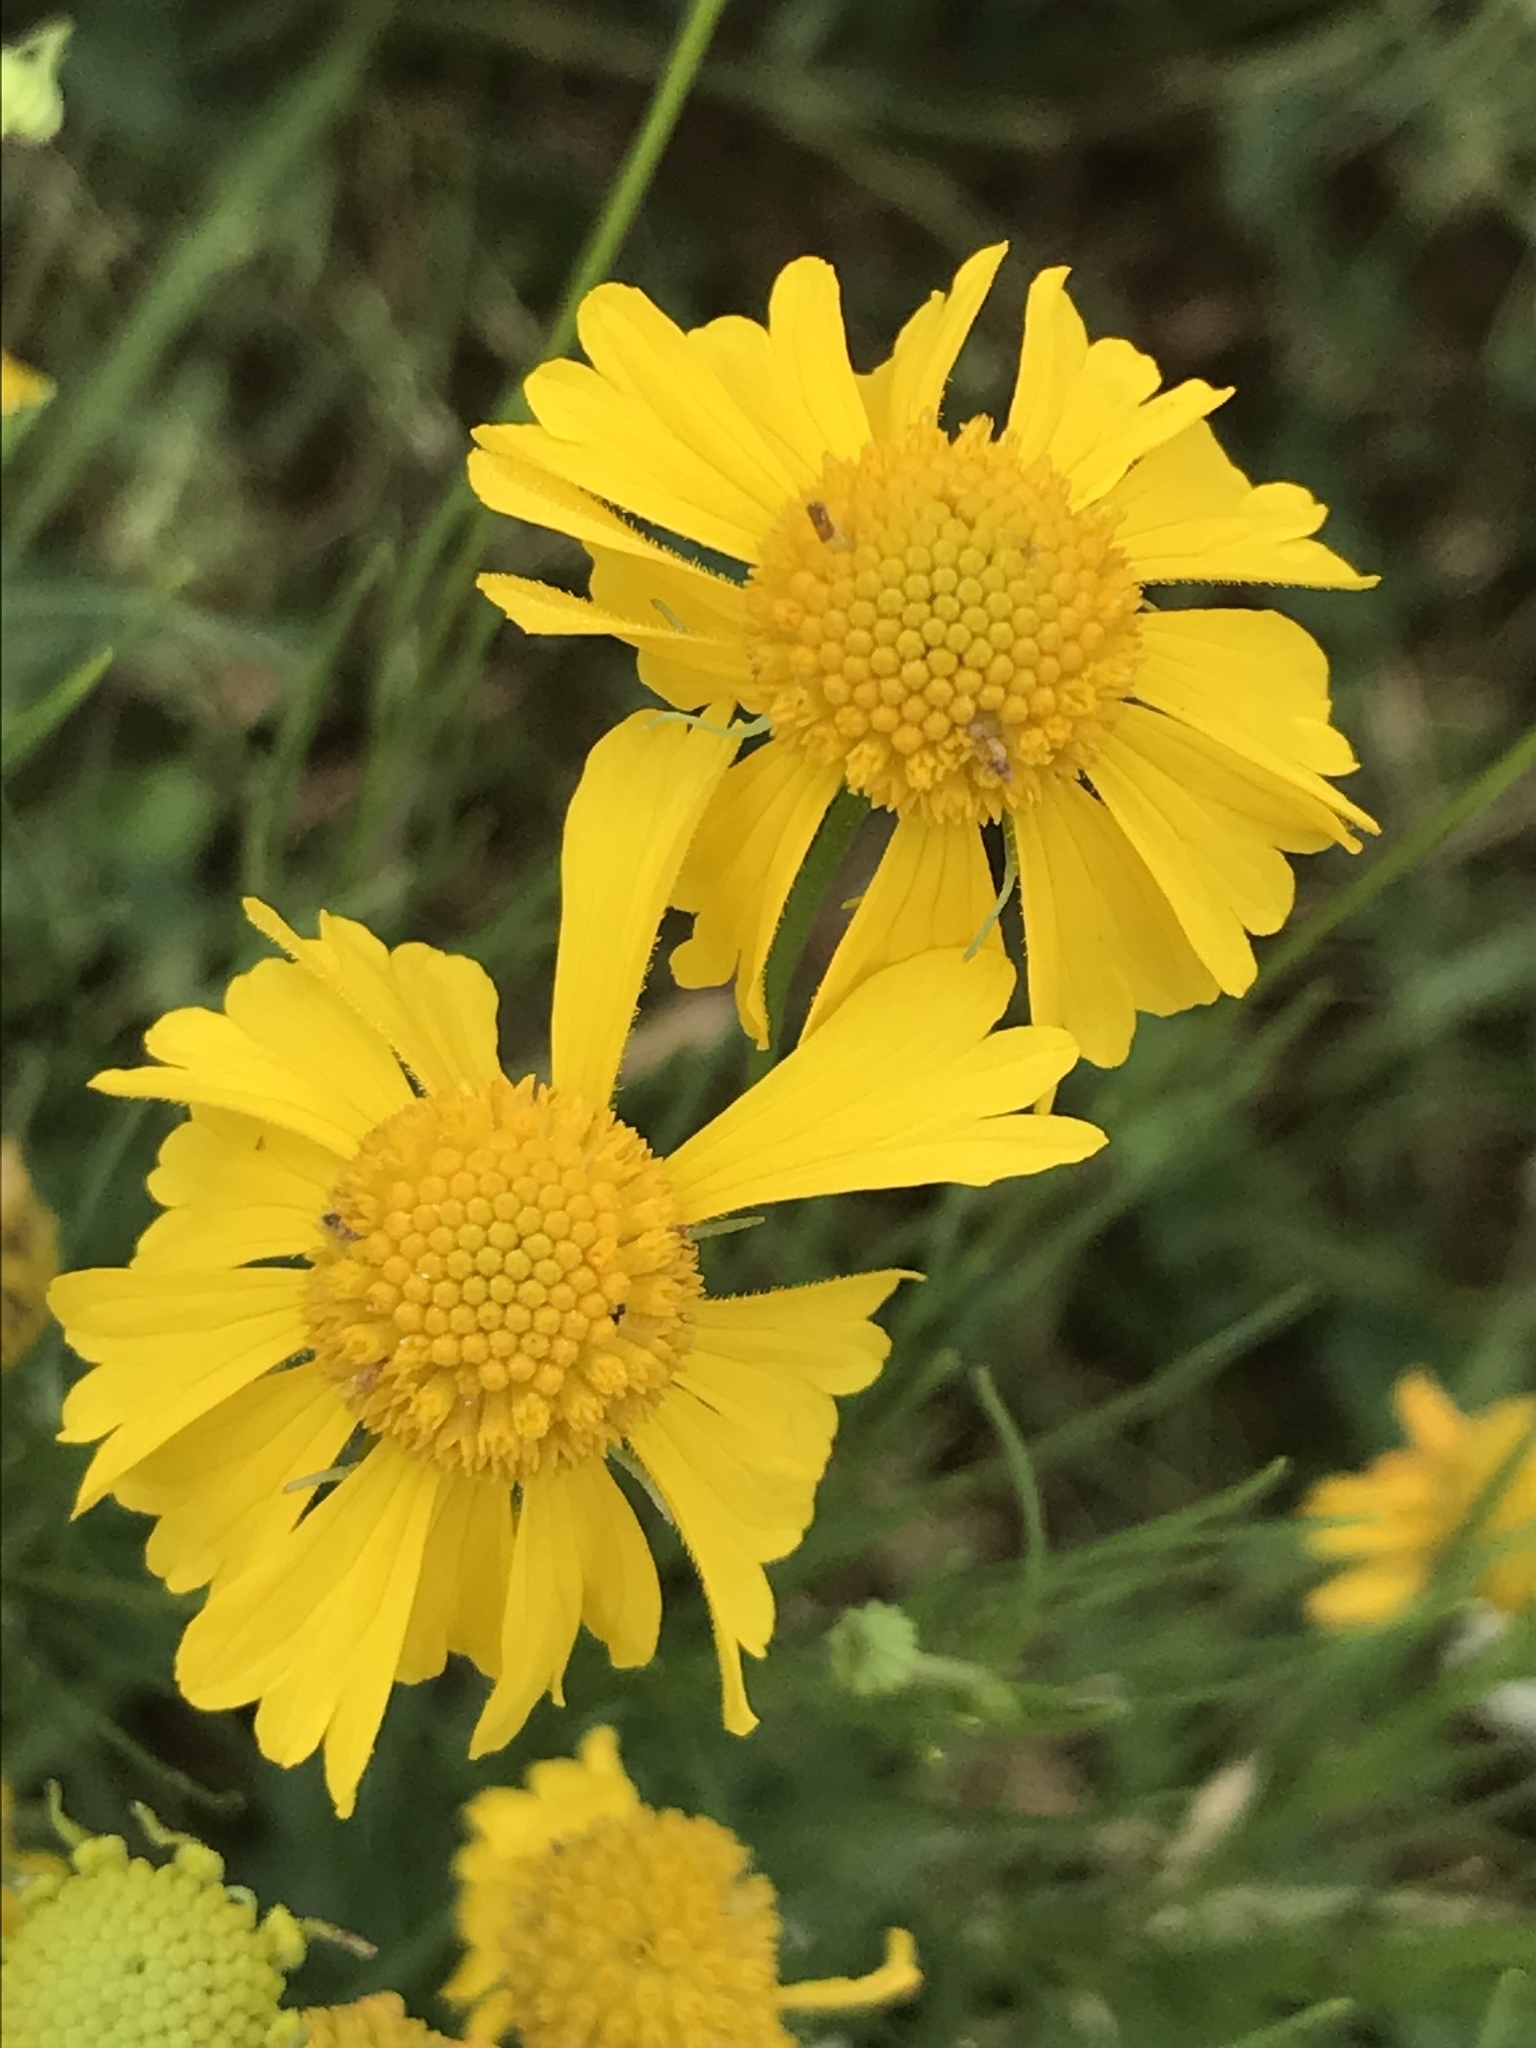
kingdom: Plantae
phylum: Tracheophyta
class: Magnoliopsida
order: Asterales
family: Asteraceae
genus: Helenium
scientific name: Helenium amarum
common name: Bitter sneezeweed
